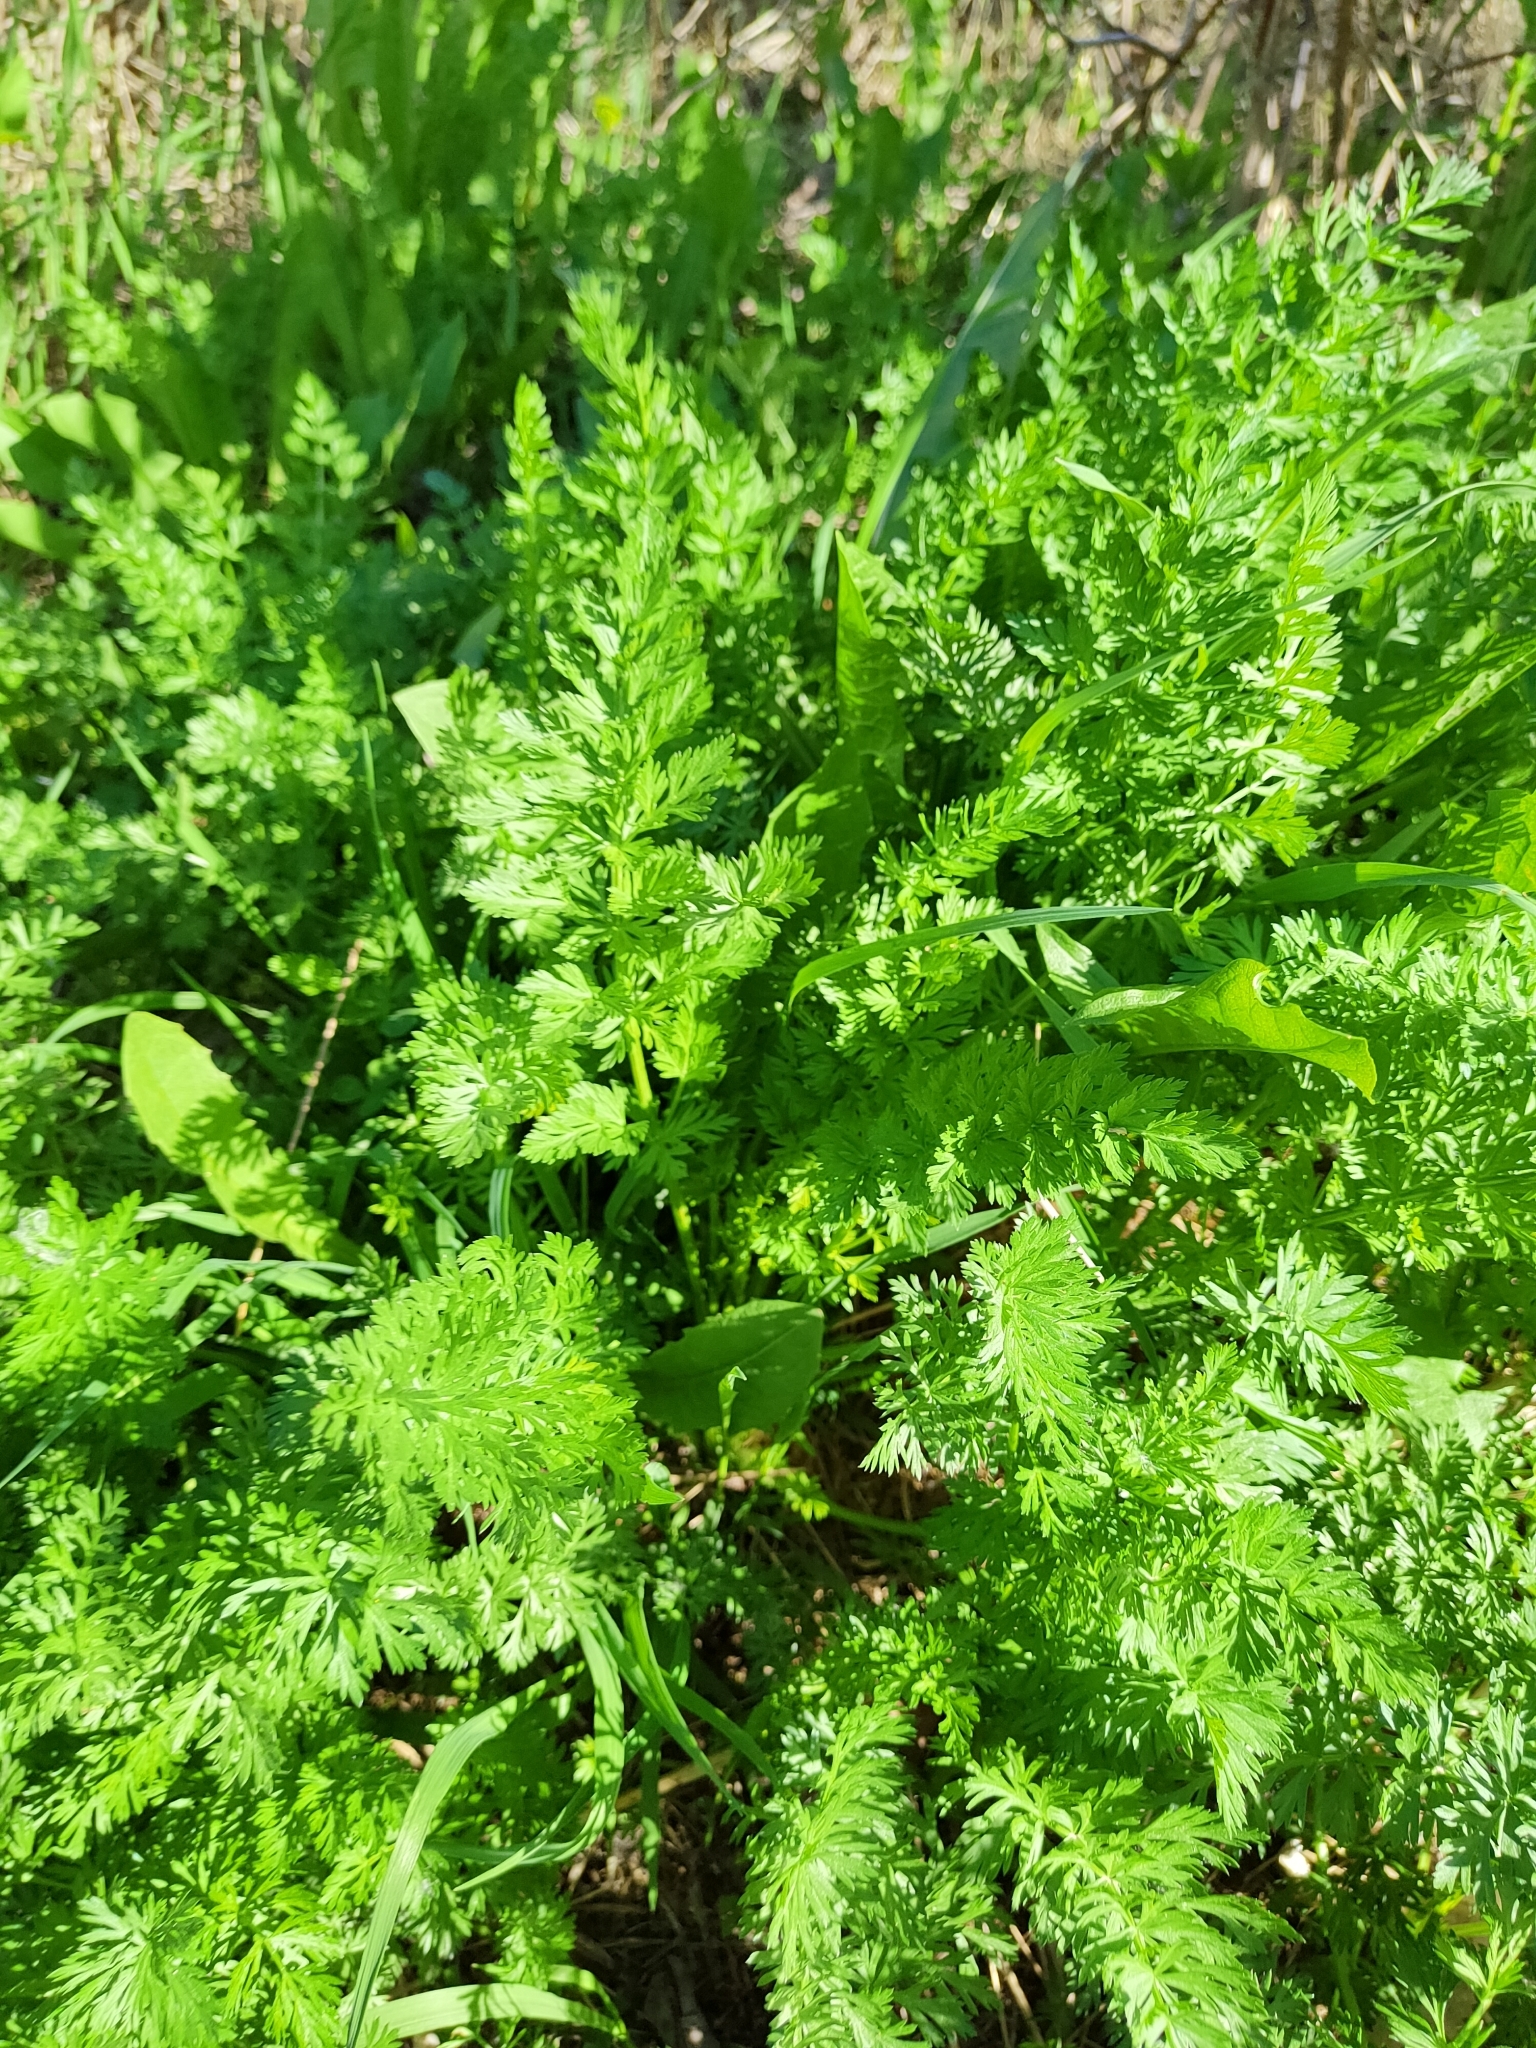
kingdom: Plantae
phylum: Tracheophyta
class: Magnoliopsida
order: Apiales
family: Apiaceae
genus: Carum
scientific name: Carum carvi
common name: Caraway
